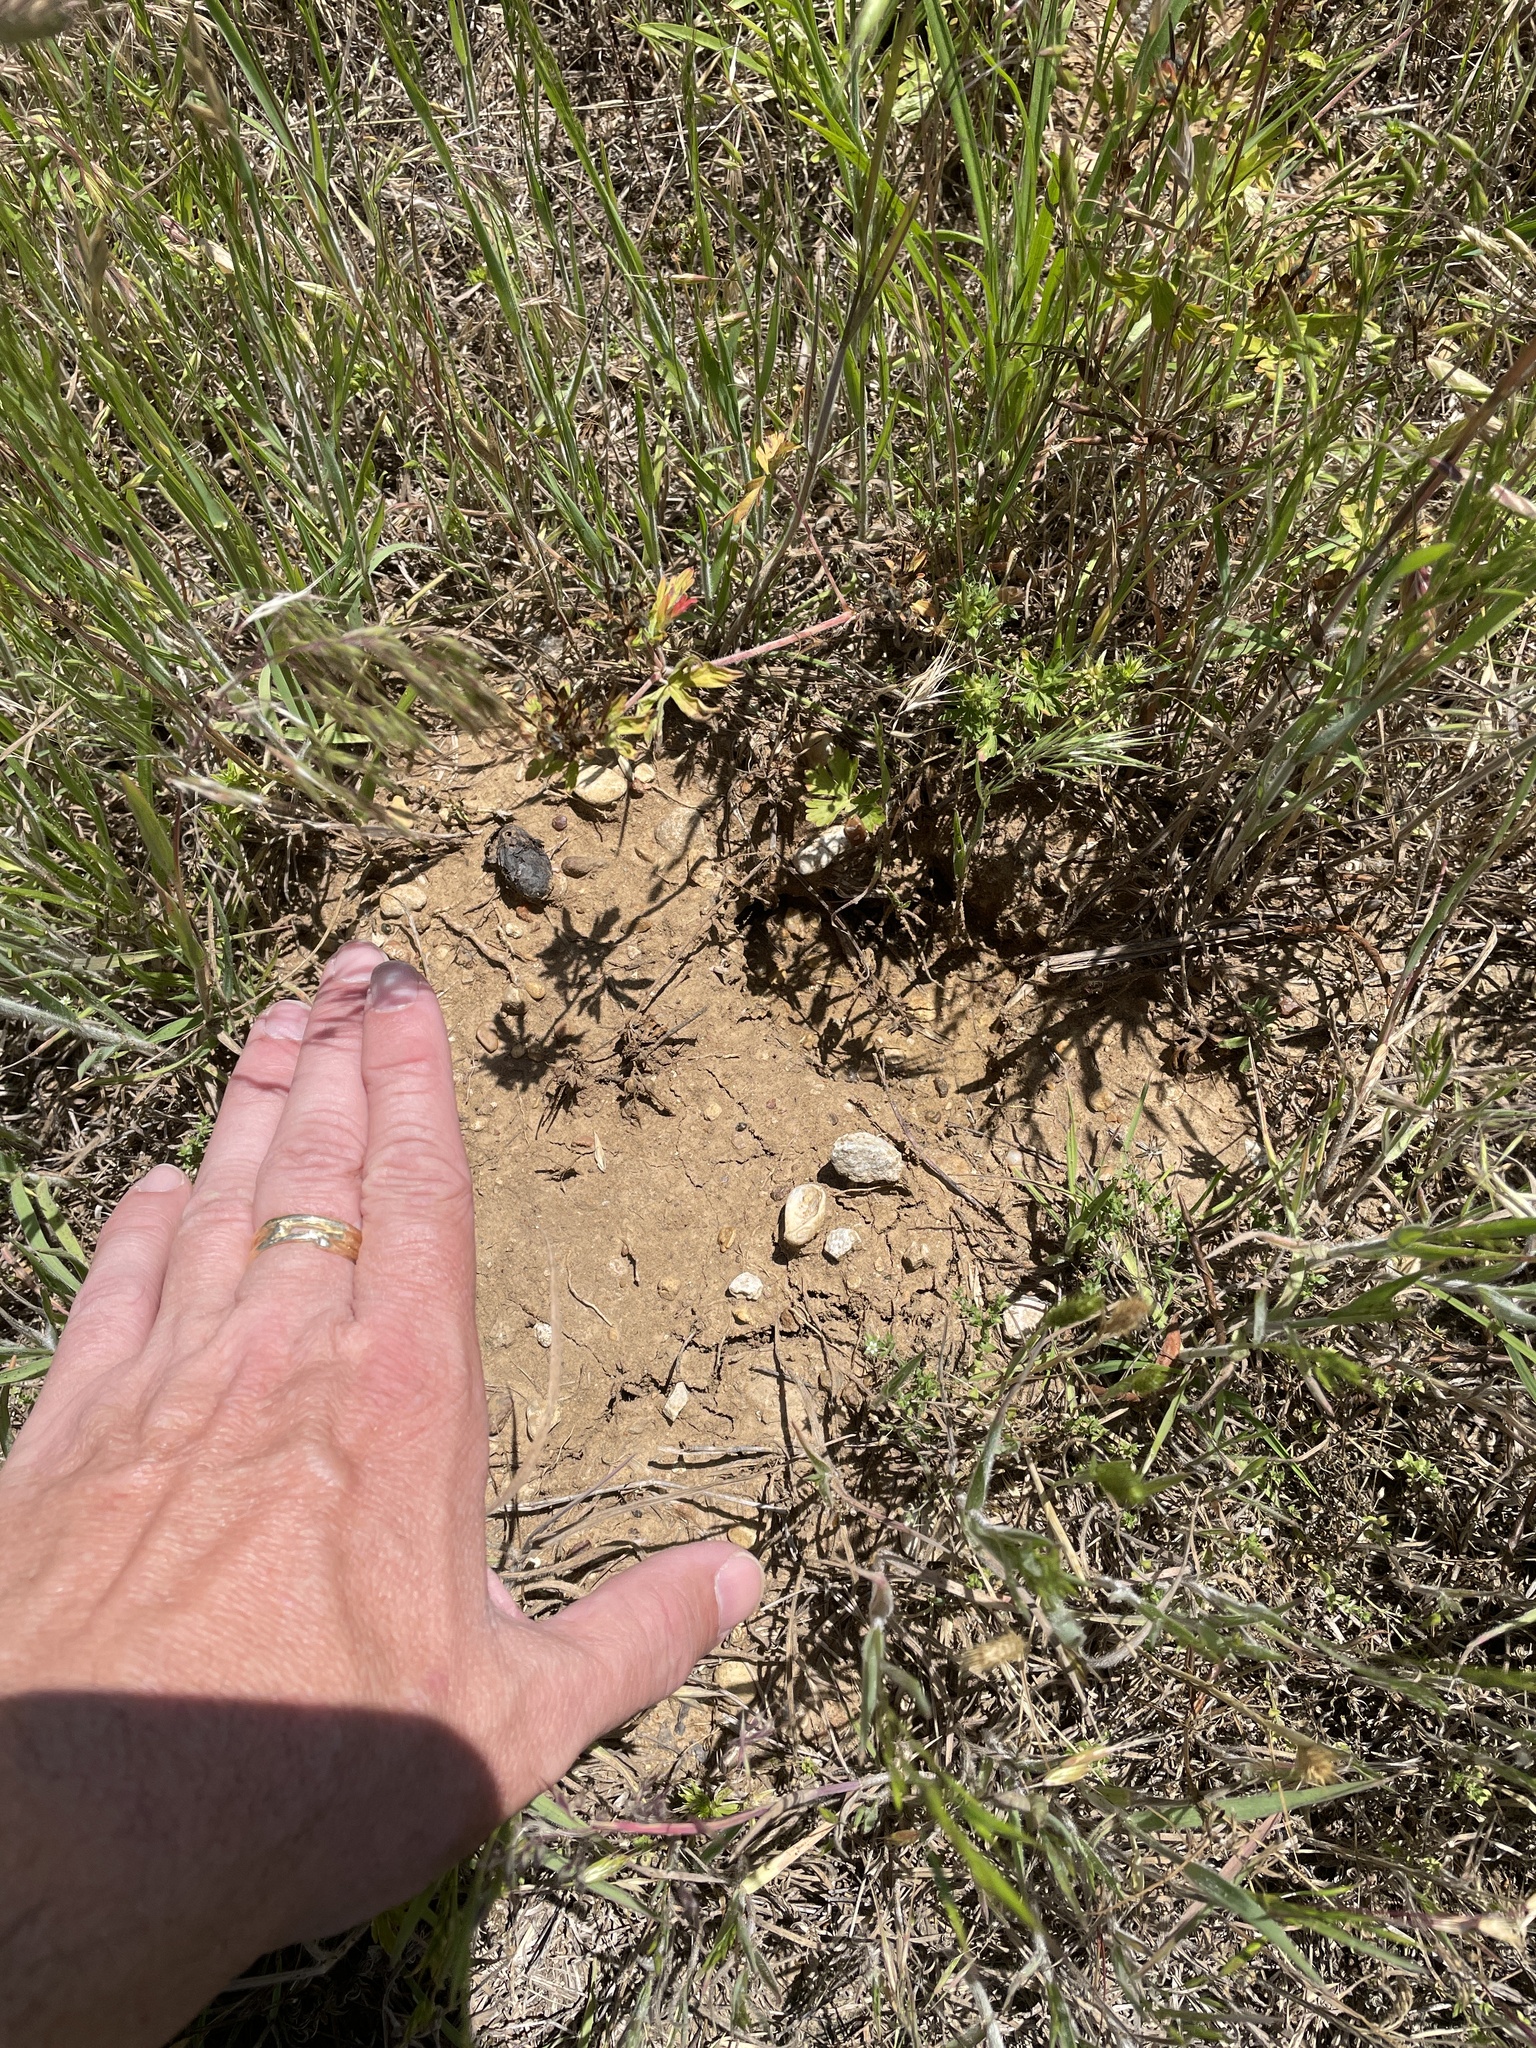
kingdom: Animalia
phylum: Chordata
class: Mammalia
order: Rodentia
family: Geomyidae
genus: Geomys
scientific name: Geomys bursarius
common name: Plains pocket gopher
